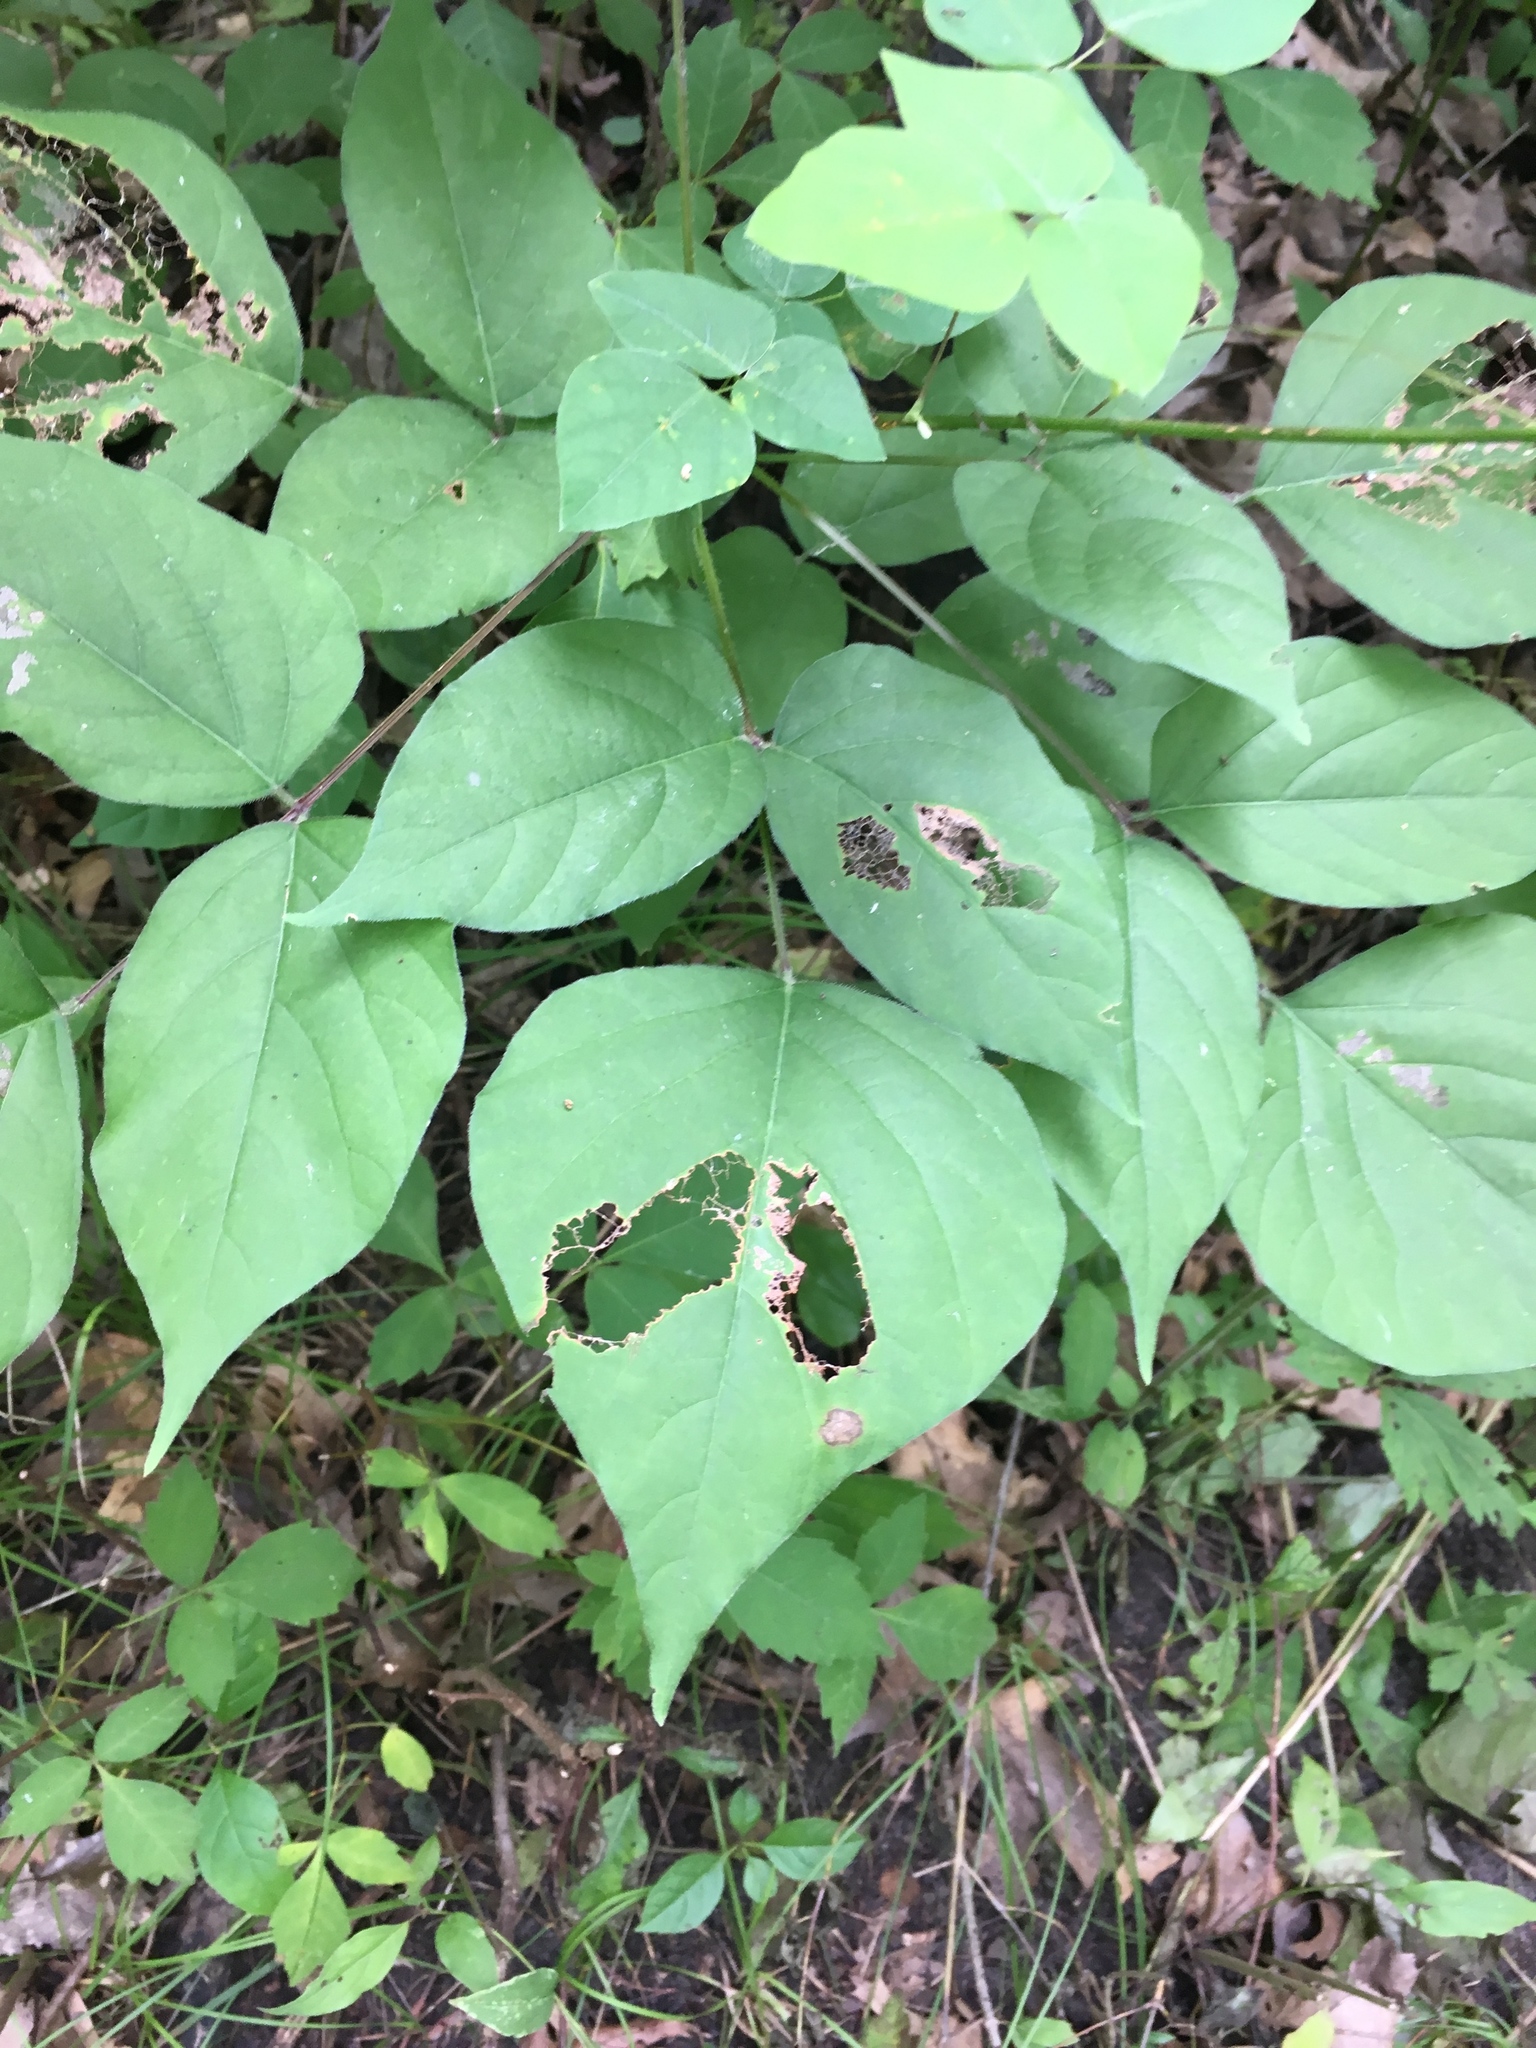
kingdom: Plantae
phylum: Tracheophyta
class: Magnoliopsida
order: Fabales
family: Fabaceae
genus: Hylodesmum
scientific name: Hylodesmum glutinosum
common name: Clustered-leaved tick-trefoil
